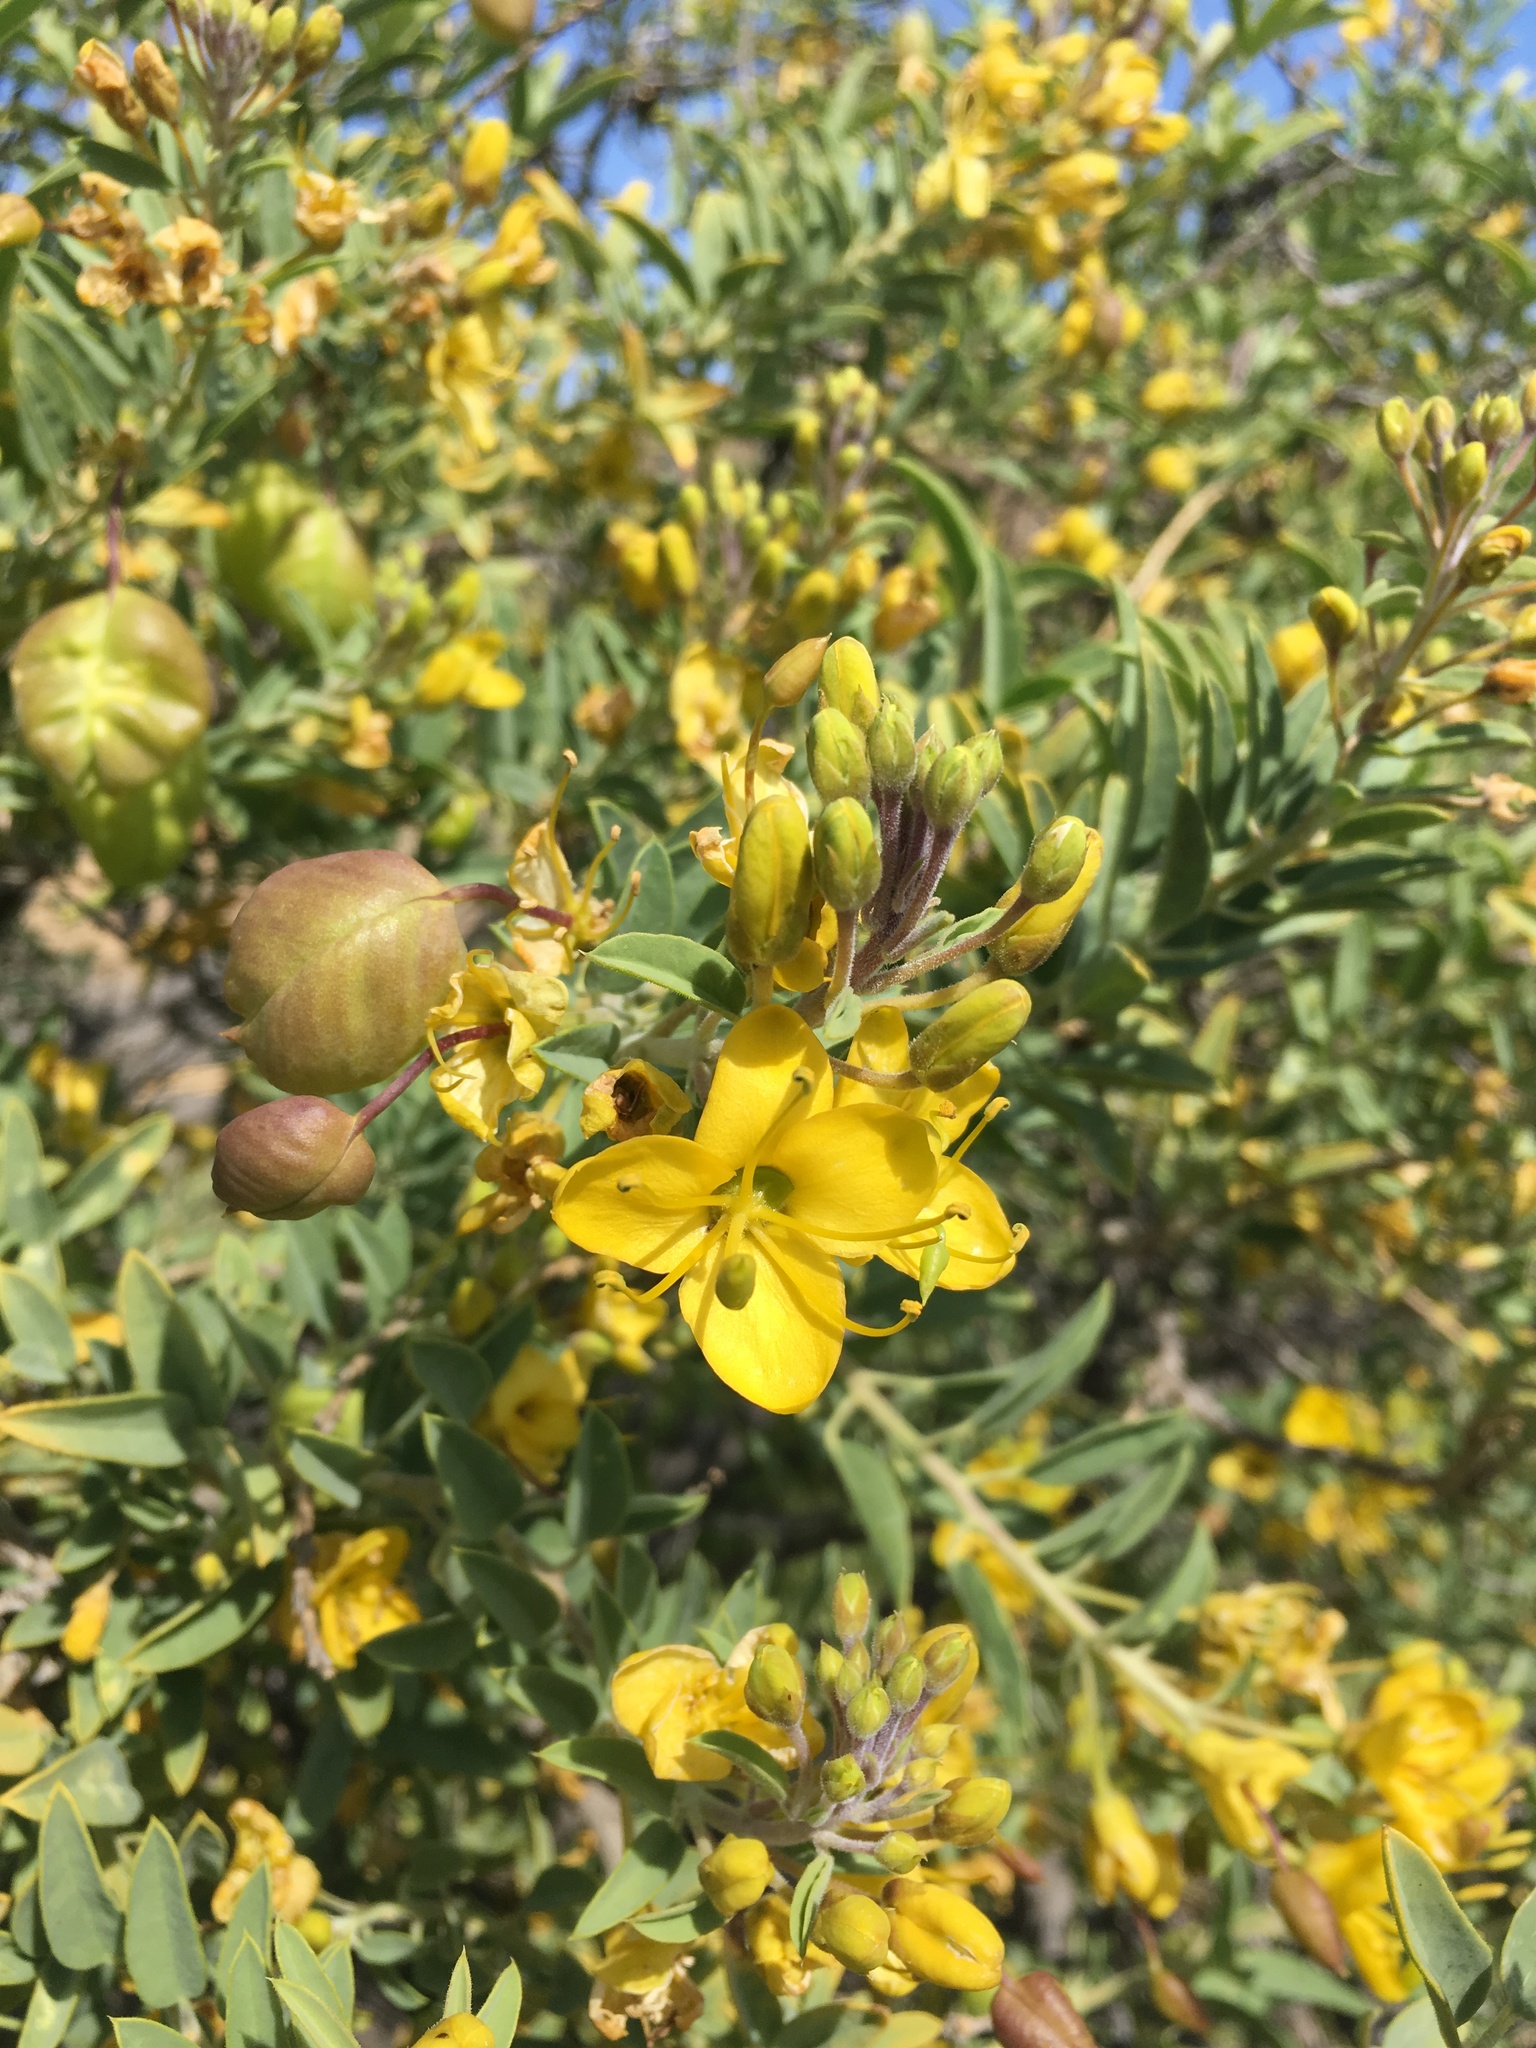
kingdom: Plantae
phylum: Tracheophyta
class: Magnoliopsida
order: Brassicales
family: Cleomaceae
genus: Cleomella
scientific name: Cleomella arborea
